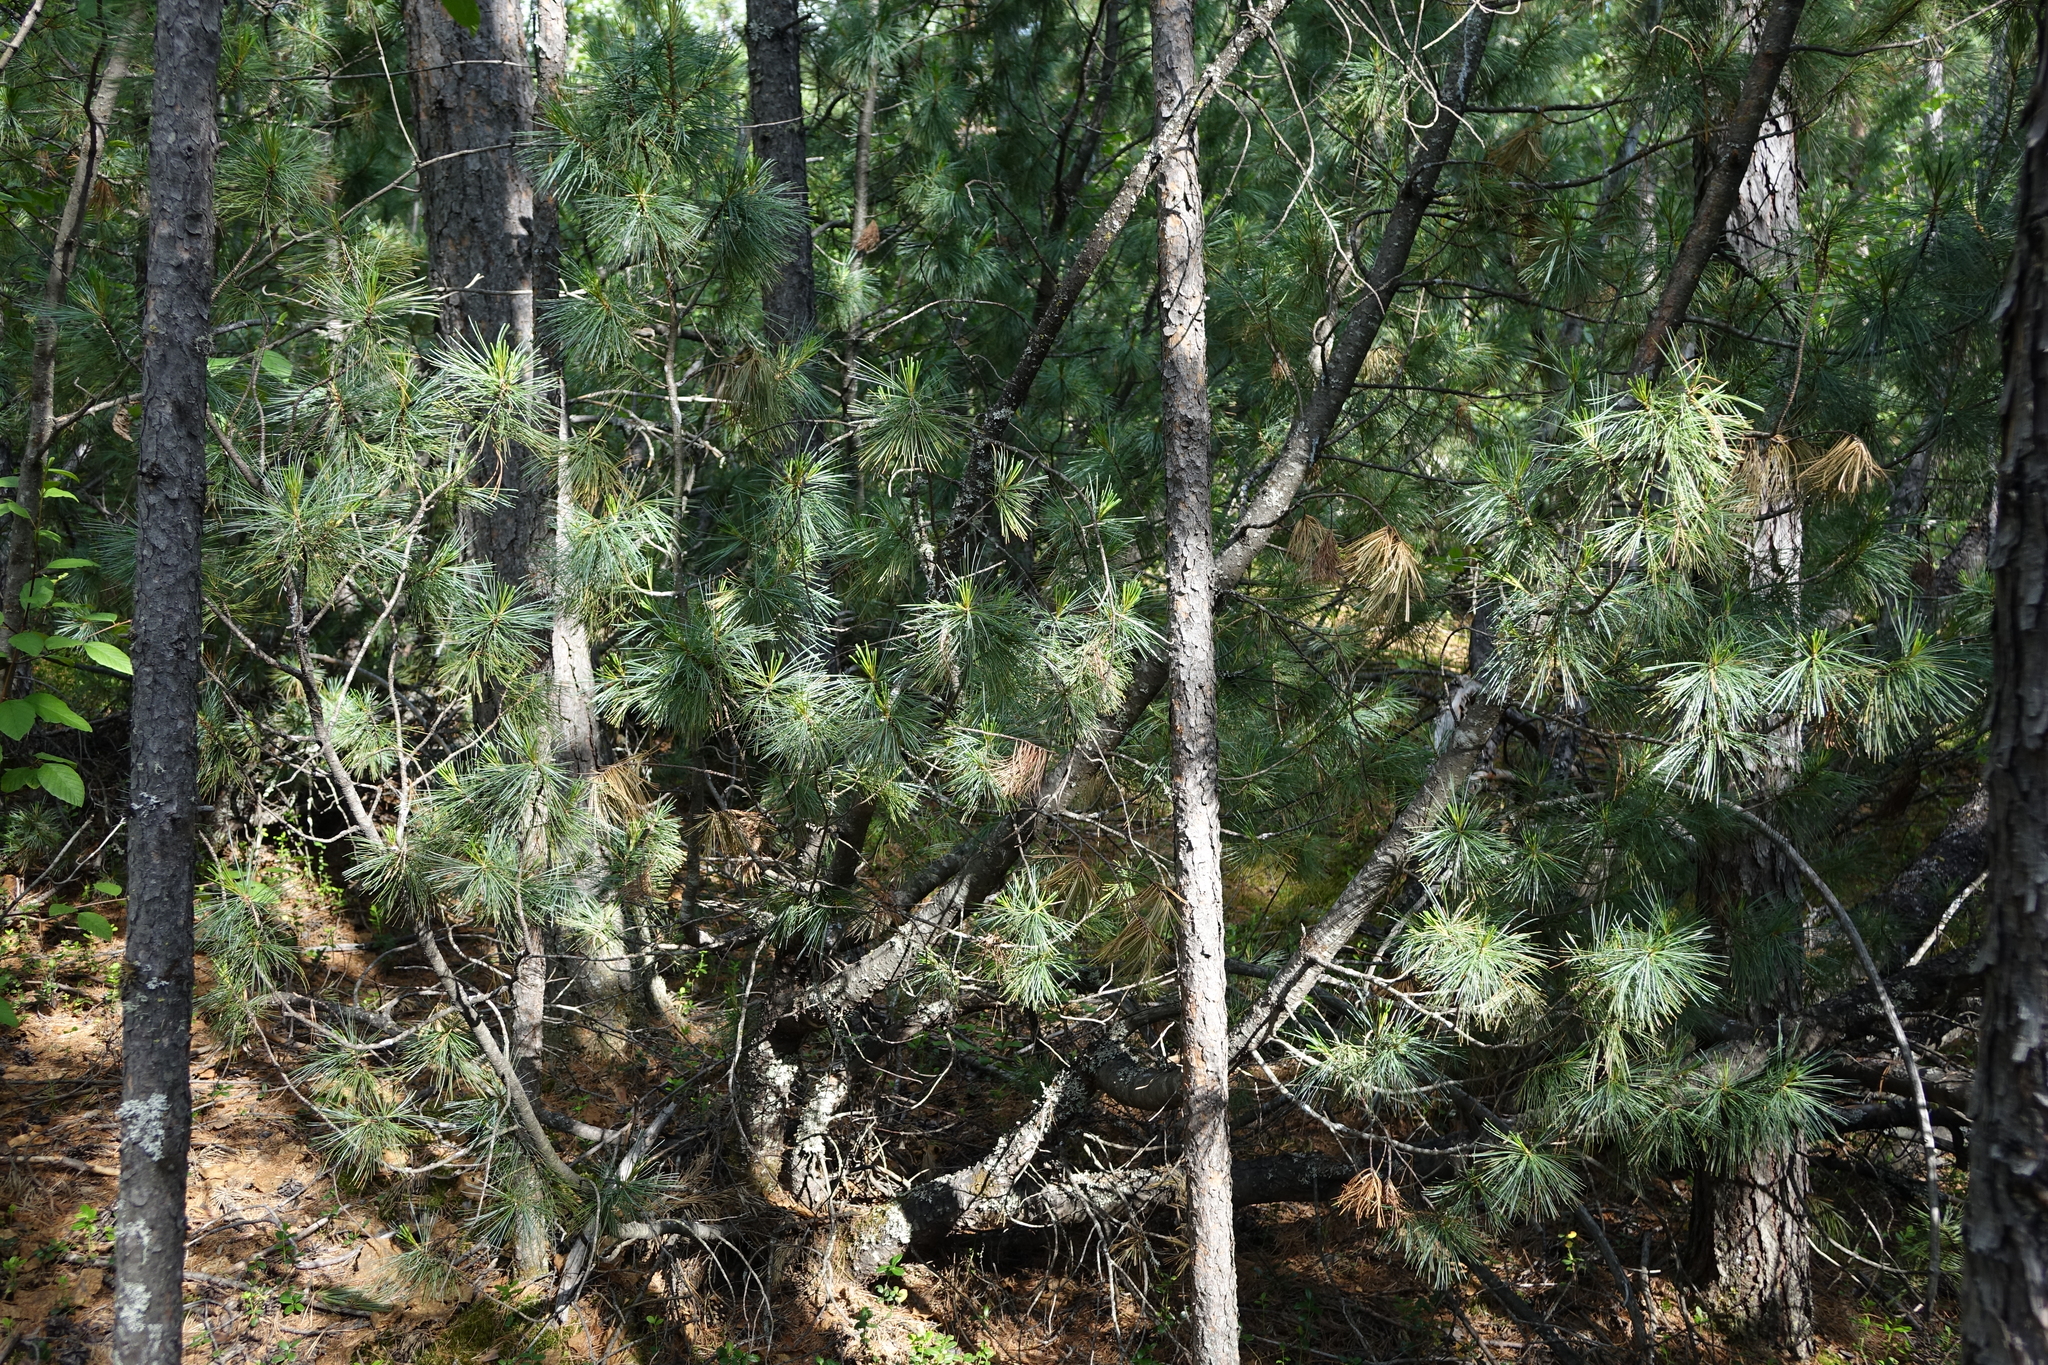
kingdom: Plantae
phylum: Tracheophyta
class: Pinopsida
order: Pinales
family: Pinaceae
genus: Pinus
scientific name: Pinus pumila
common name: Dwarf siberian pine
